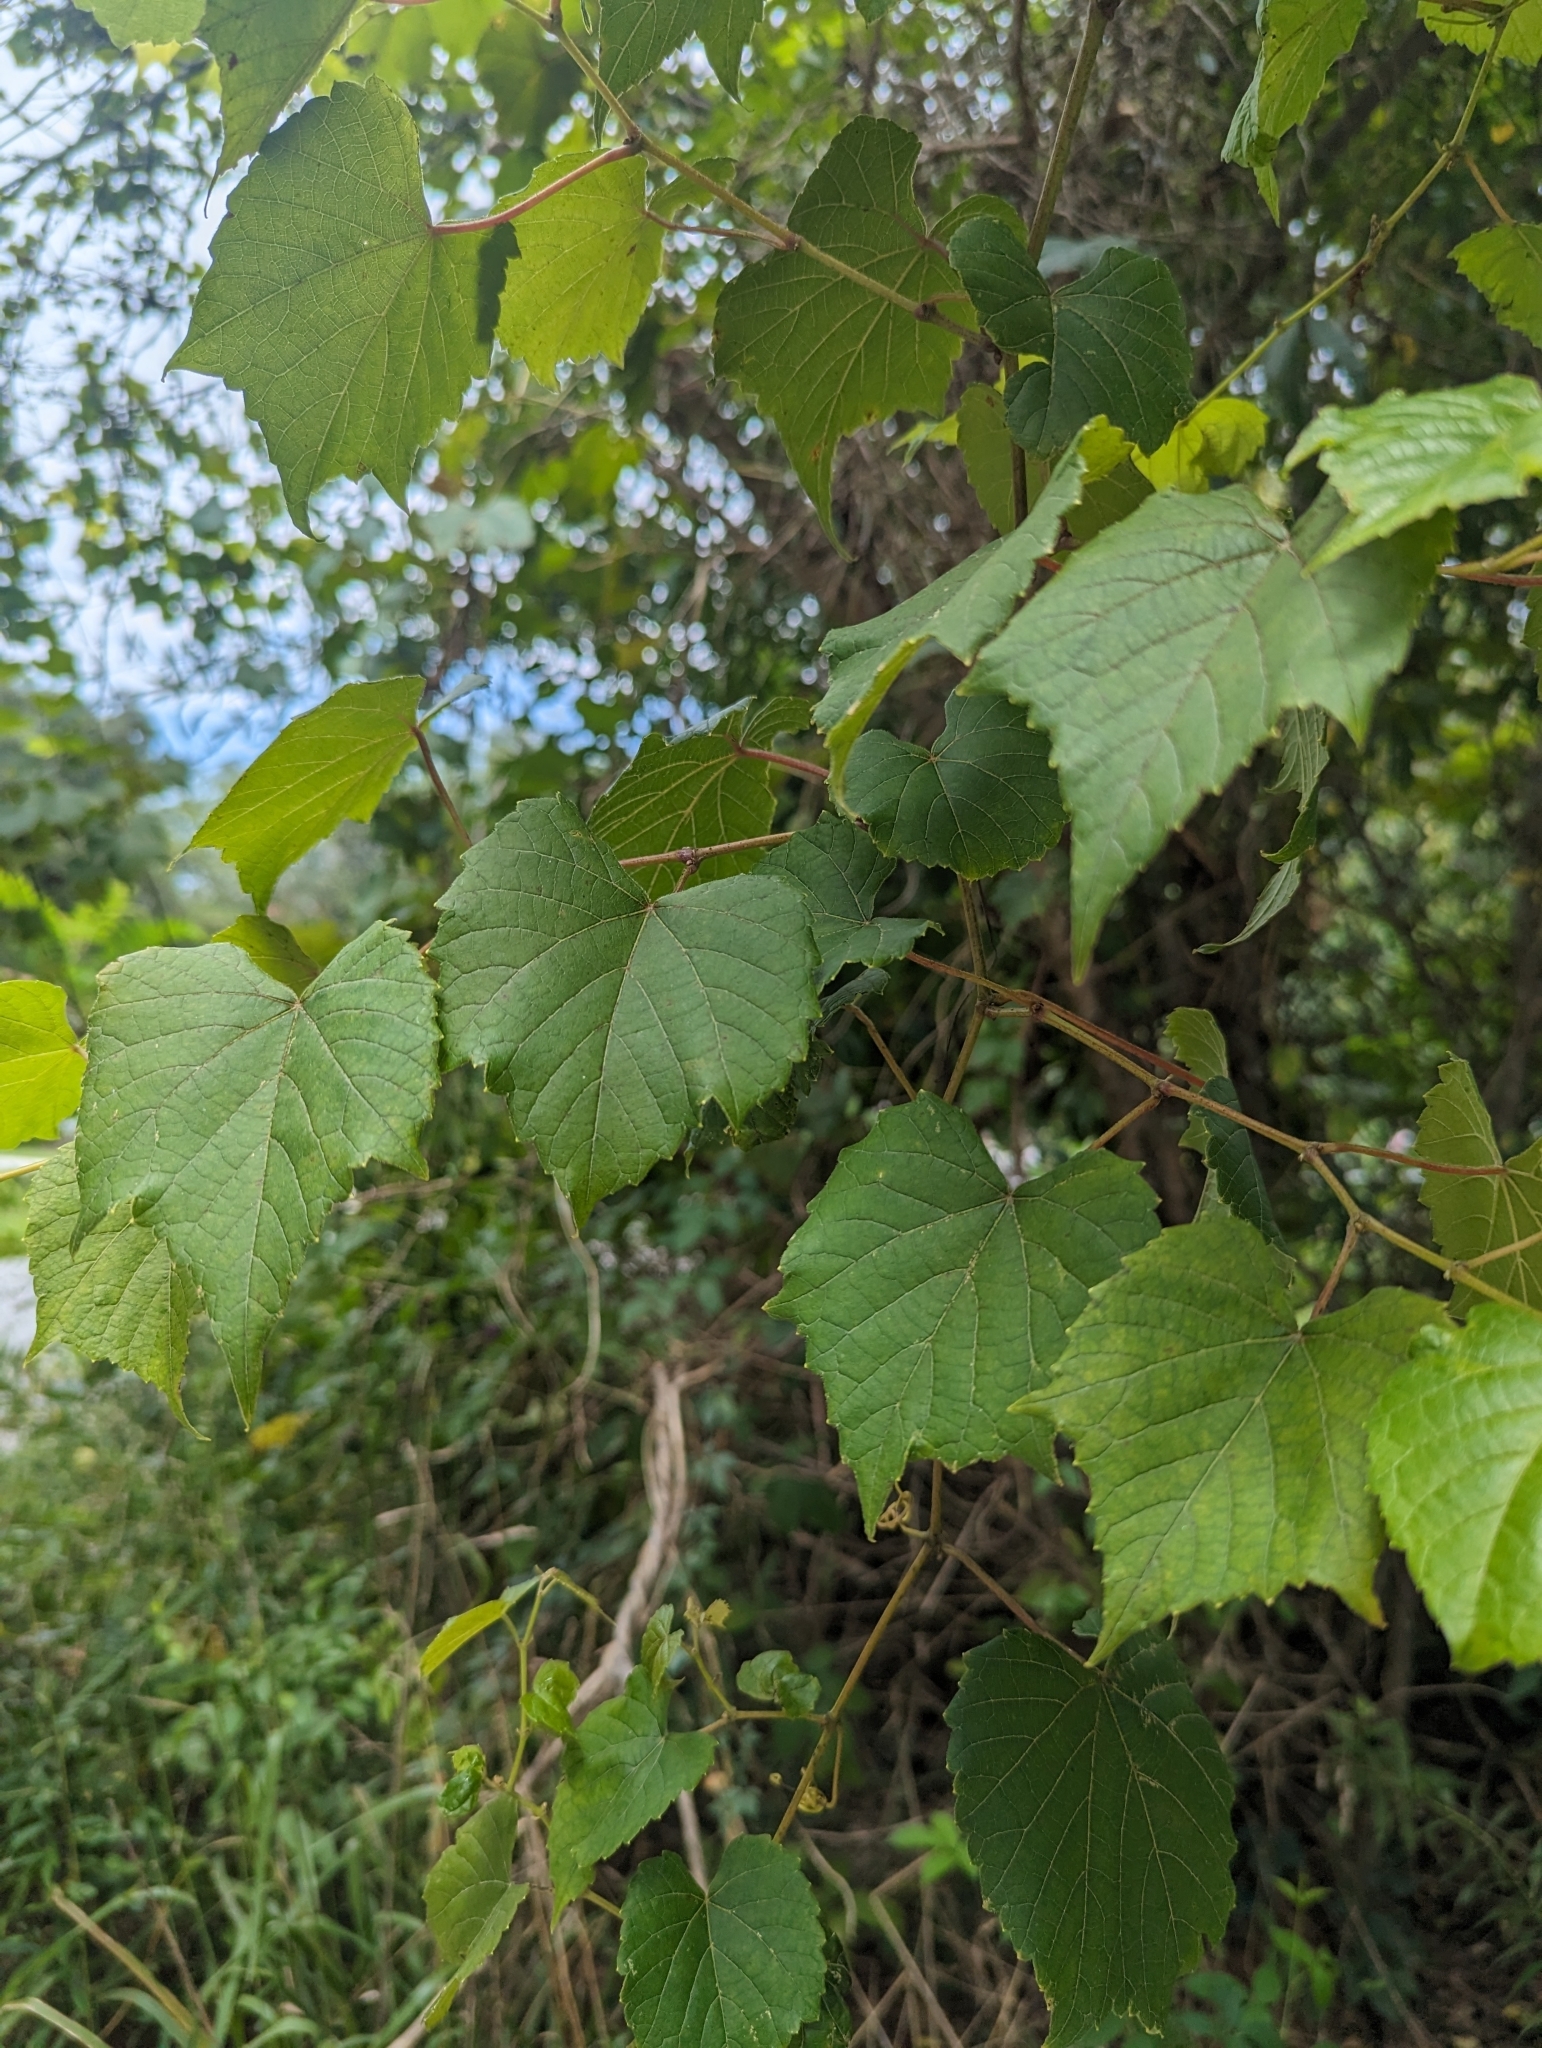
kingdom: Plantae
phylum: Tracheophyta
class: Magnoliopsida
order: Vitales
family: Vitaceae
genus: Vitis
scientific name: Vitis rotundifolia
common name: Muscadine grape
